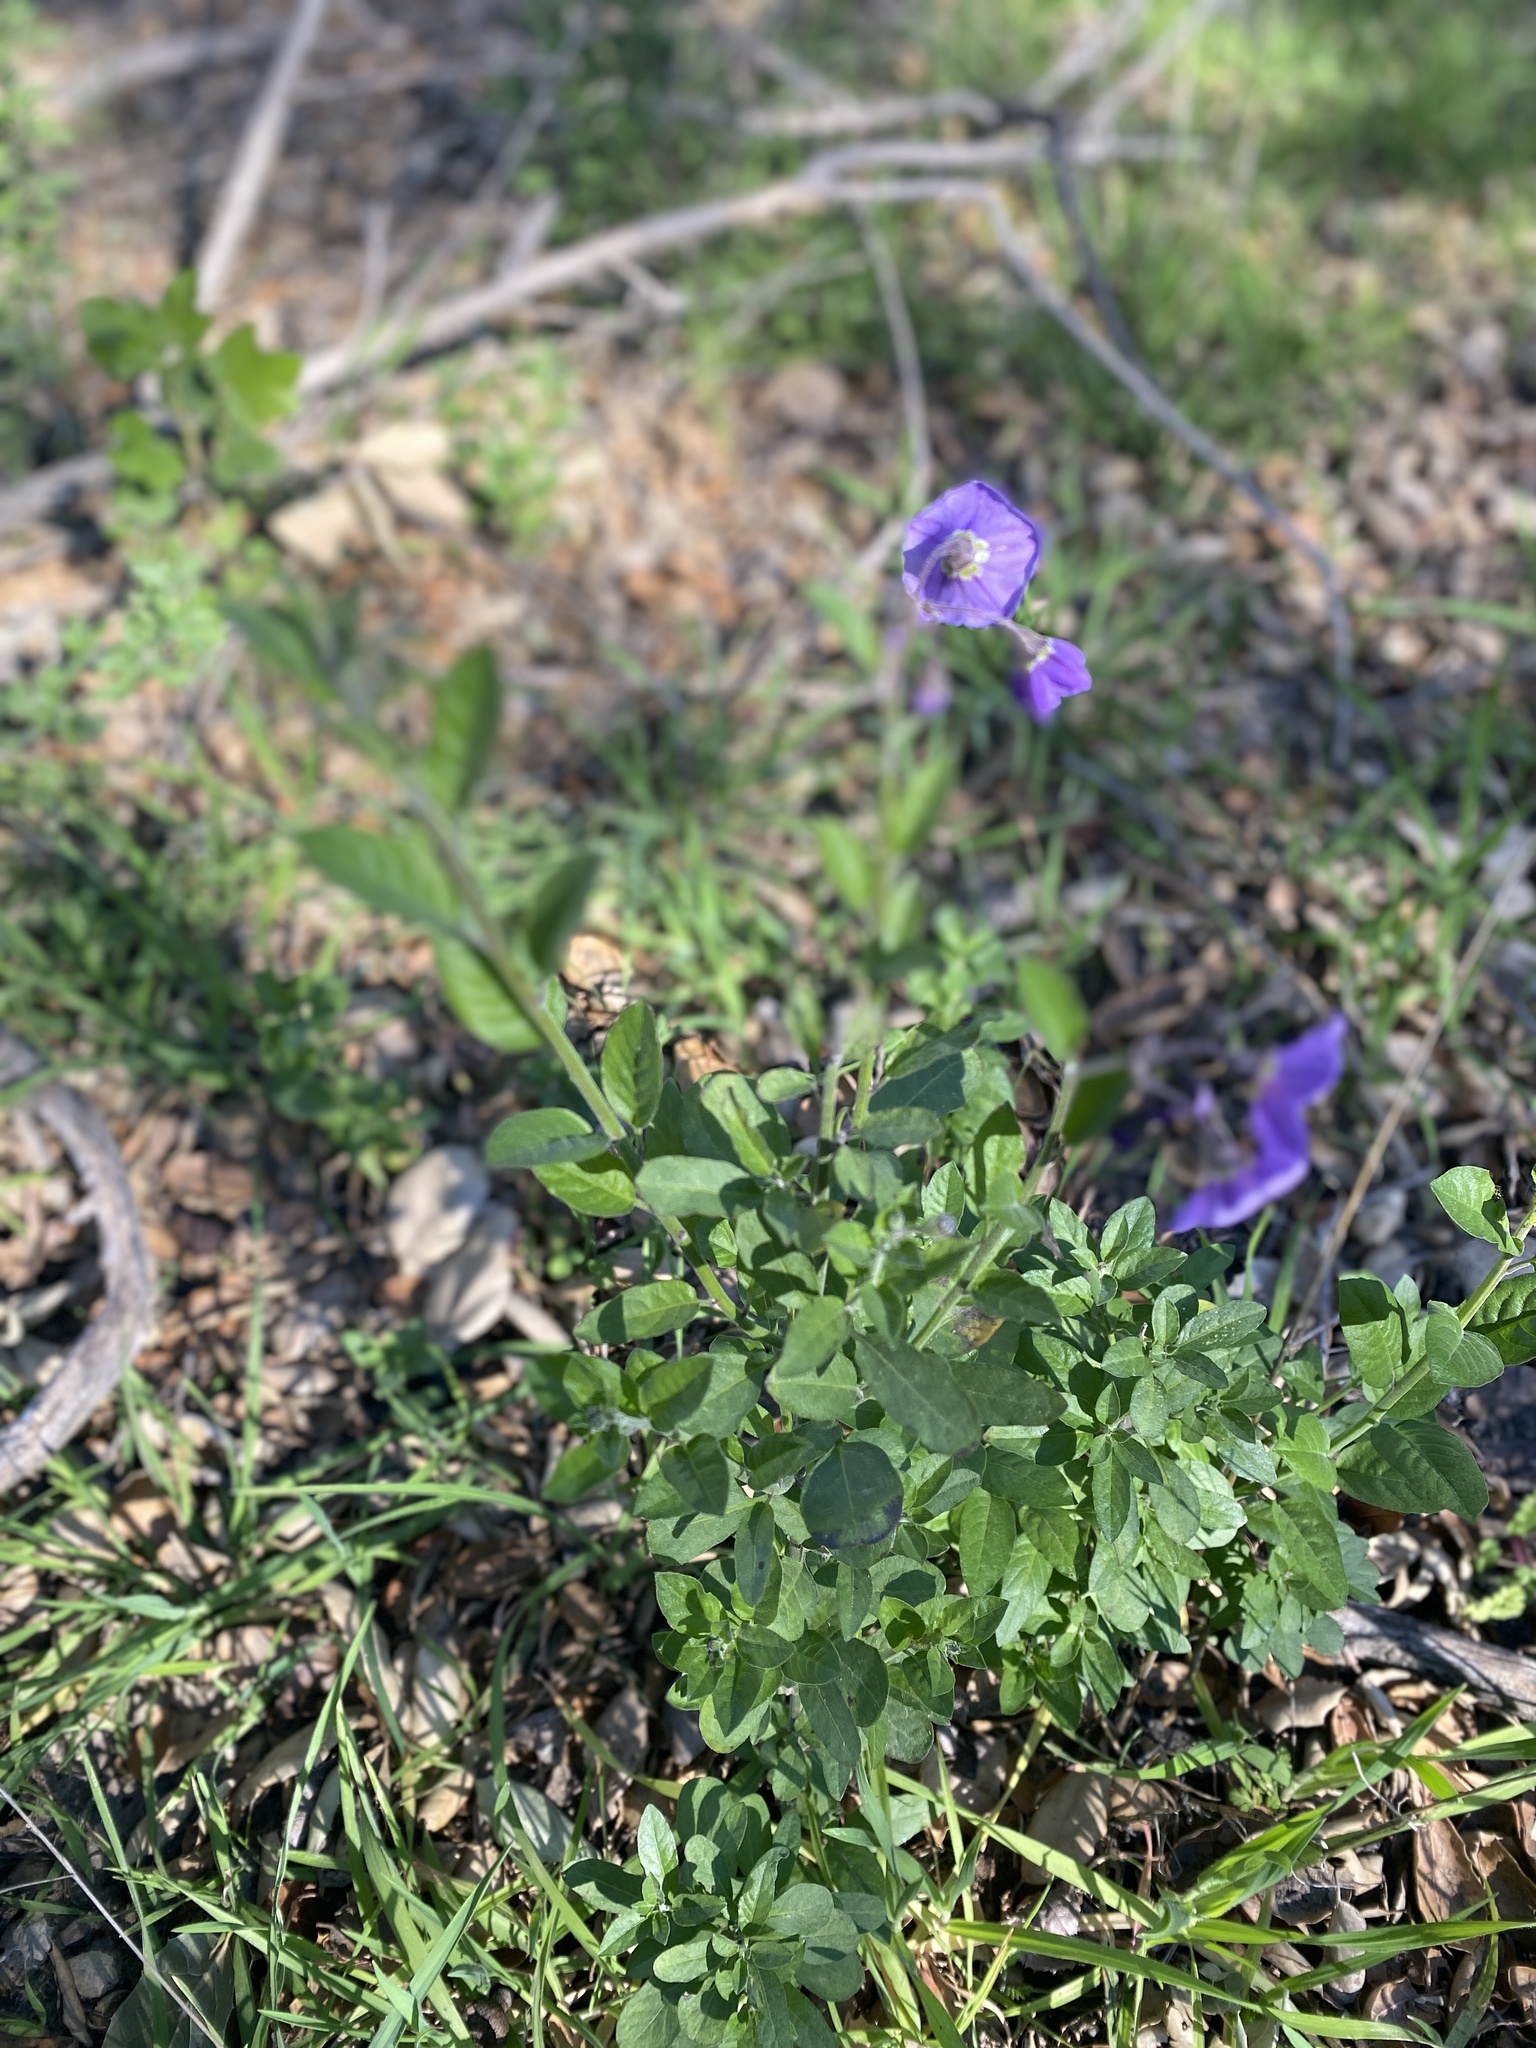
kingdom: Plantae
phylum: Tracheophyta
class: Magnoliopsida
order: Solanales
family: Solanaceae
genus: Solanum
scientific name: Solanum umbelliferum
